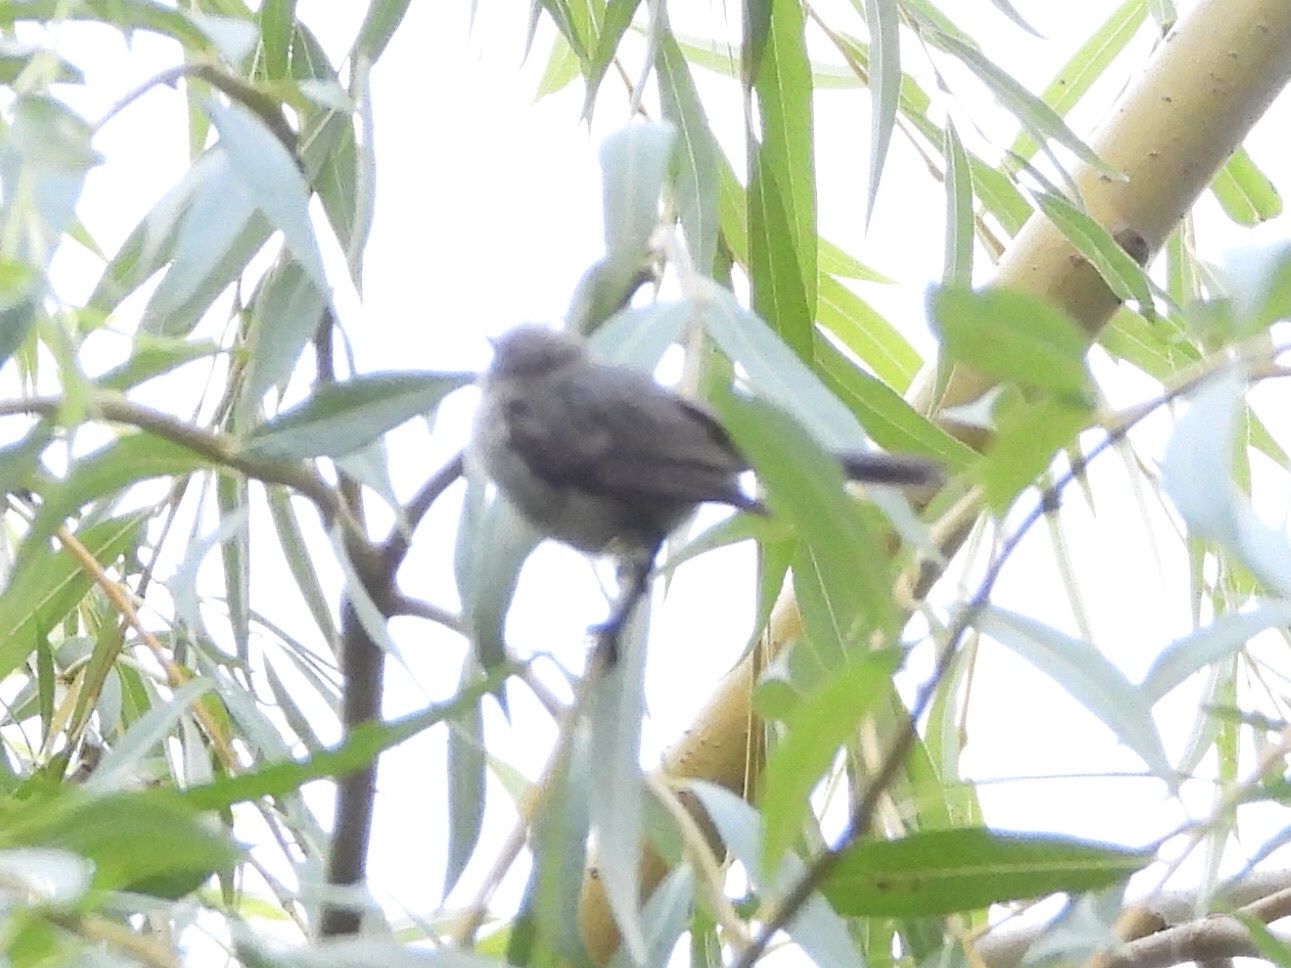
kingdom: Animalia
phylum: Chordata
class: Aves
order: Passeriformes
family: Aegithalidae
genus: Psaltriparus
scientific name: Psaltriparus minimus
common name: American bushtit
